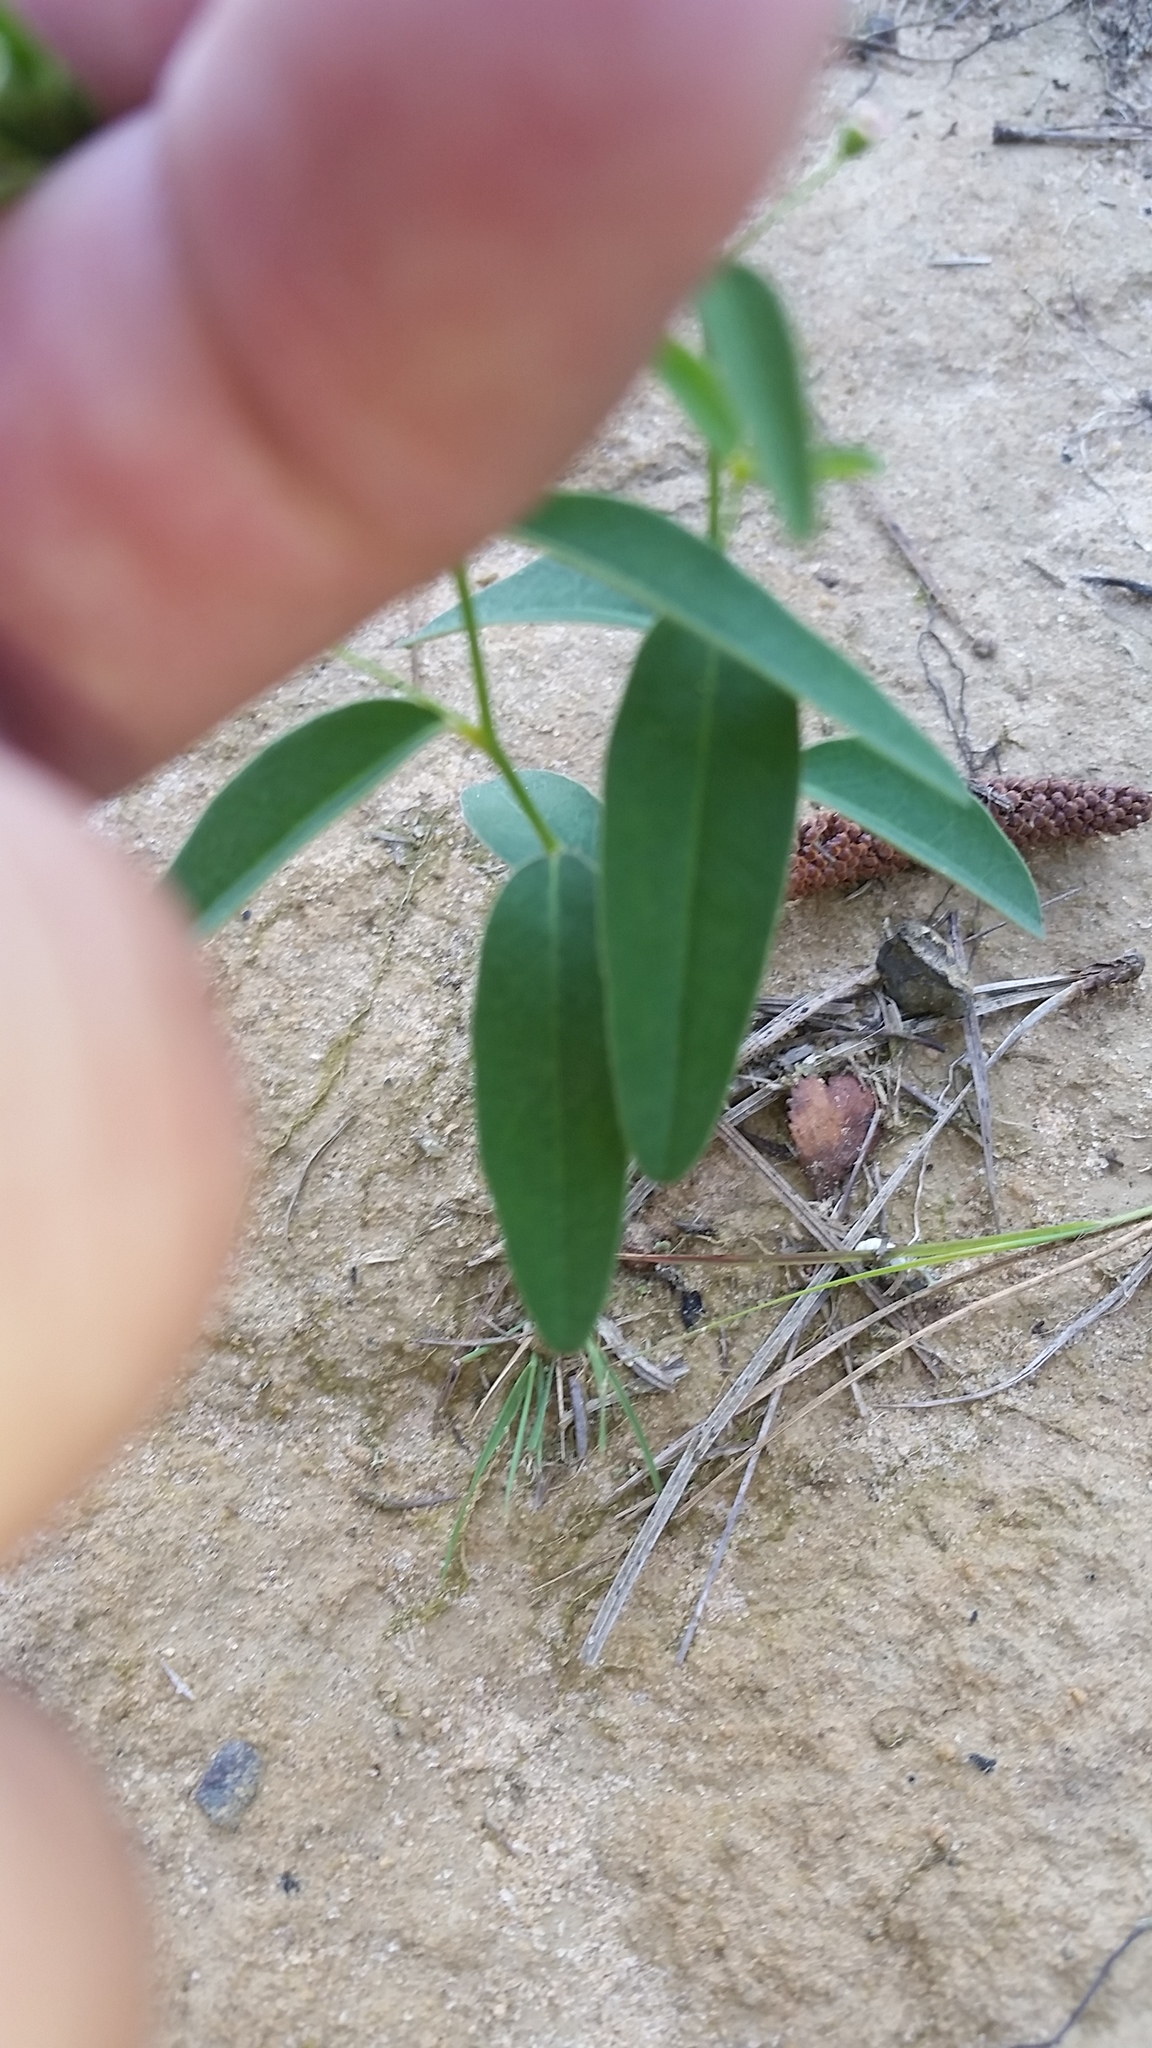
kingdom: Plantae
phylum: Tracheophyta
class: Magnoliopsida
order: Malpighiales
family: Euphorbiaceae
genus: Euphorbia
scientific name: Euphorbia curtisii
